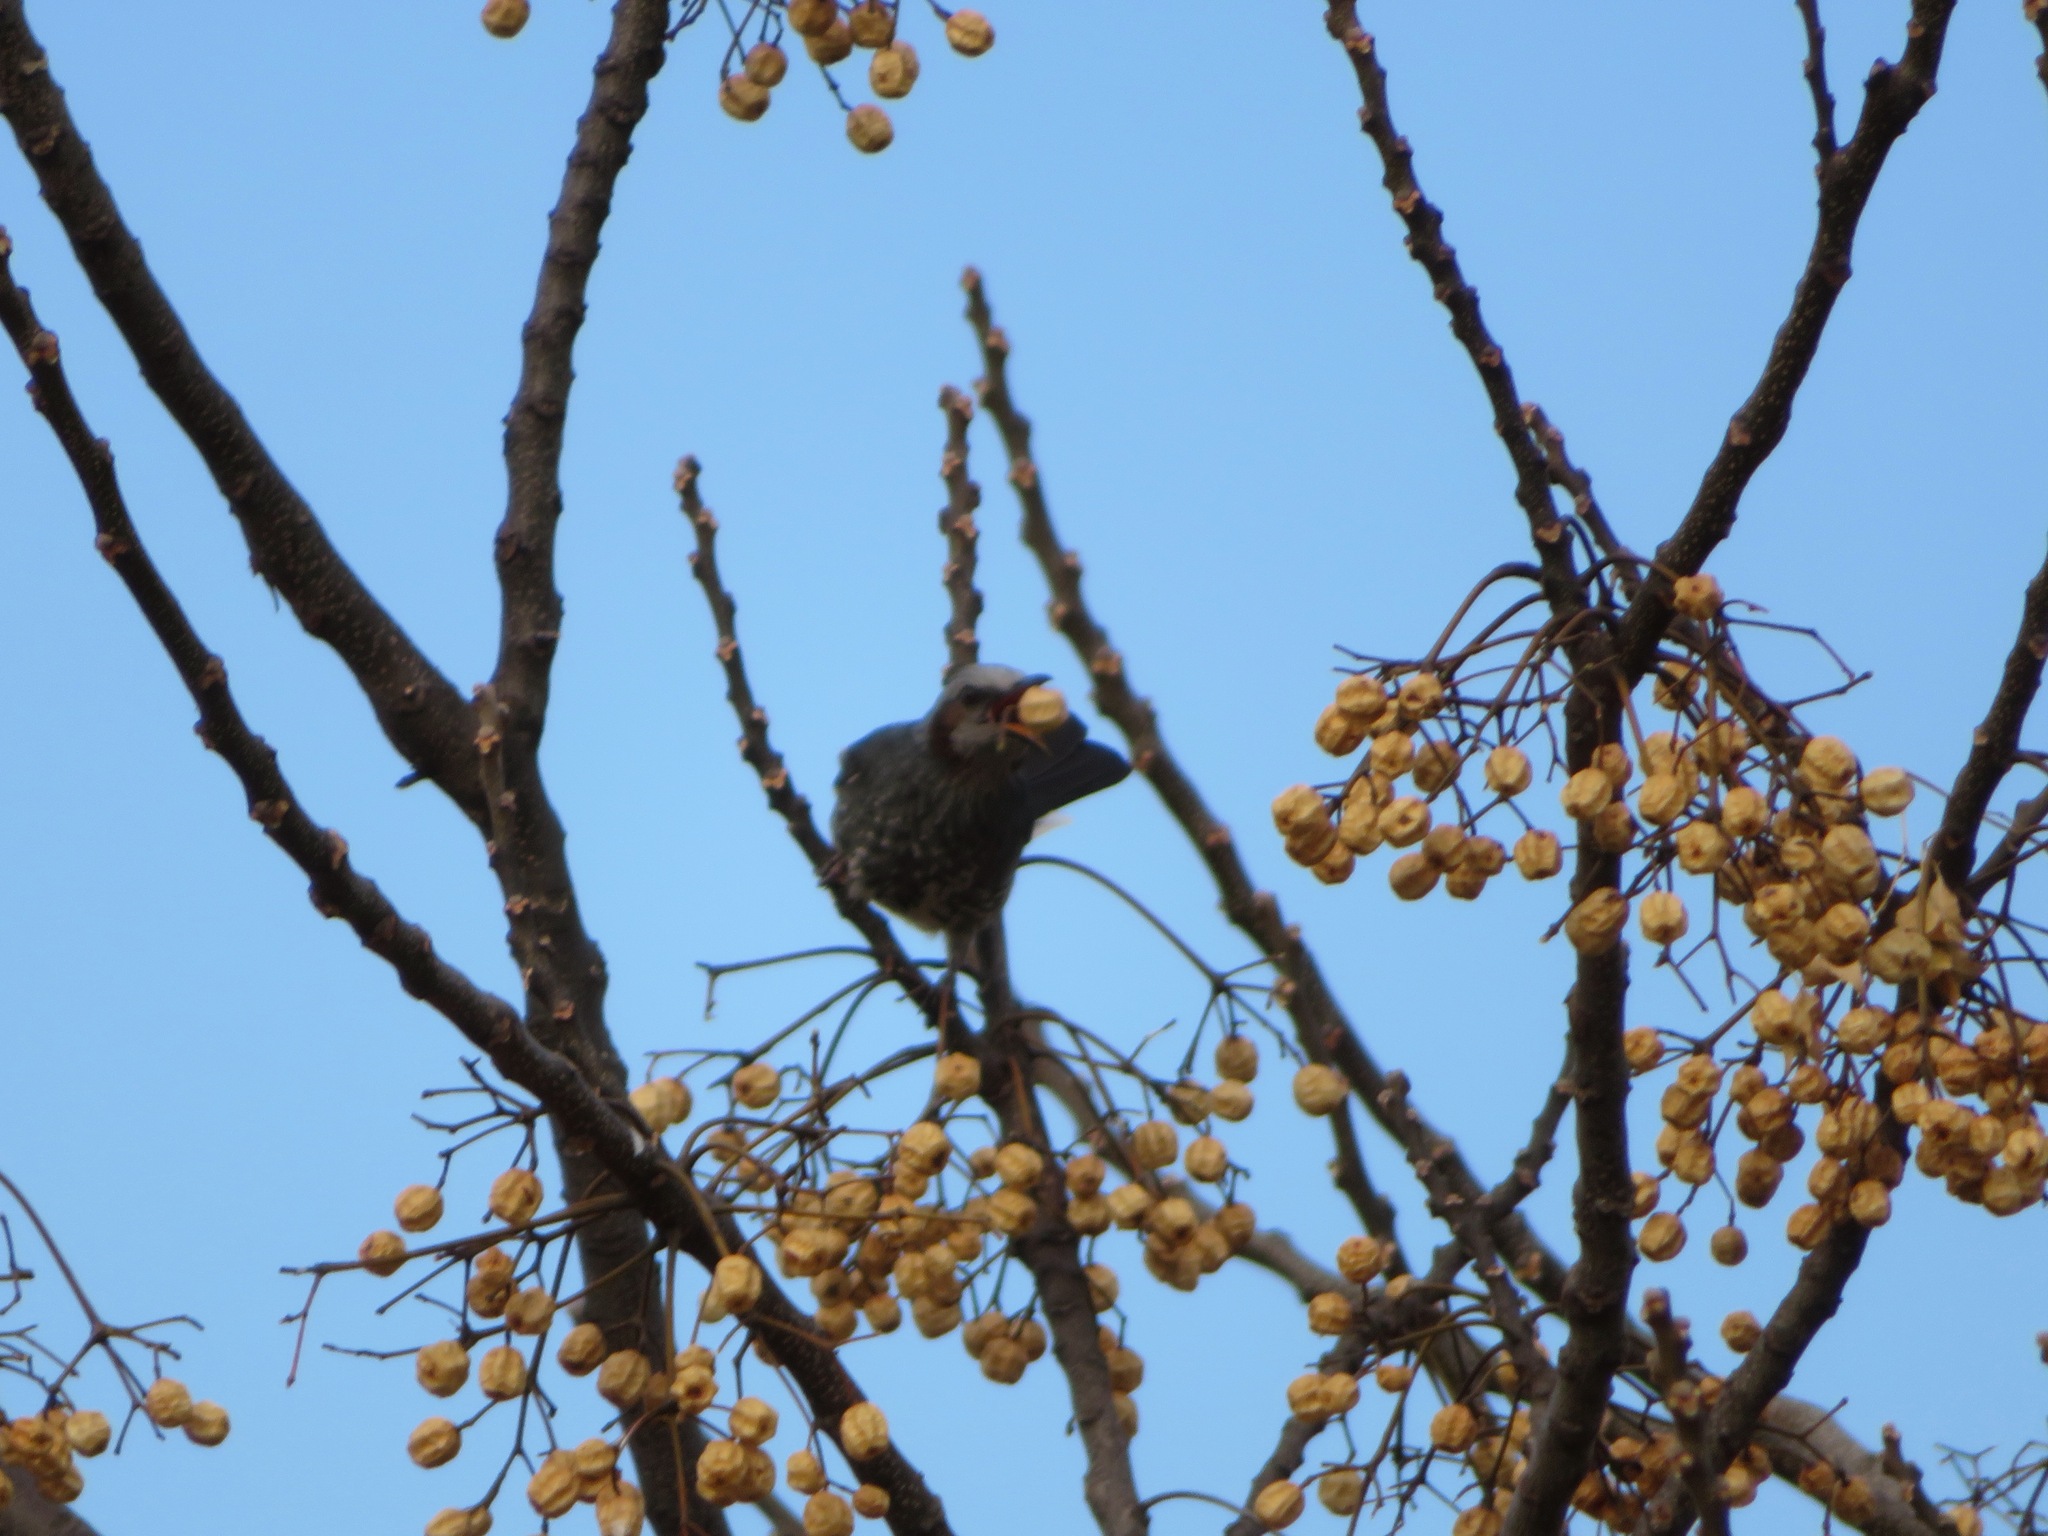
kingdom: Animalia
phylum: Chordata
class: Aves
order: Passeriformes
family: Pycnonotidae
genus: Hypsipetes
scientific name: Hypsipetes amaurotis
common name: Brown-eared bulbul
